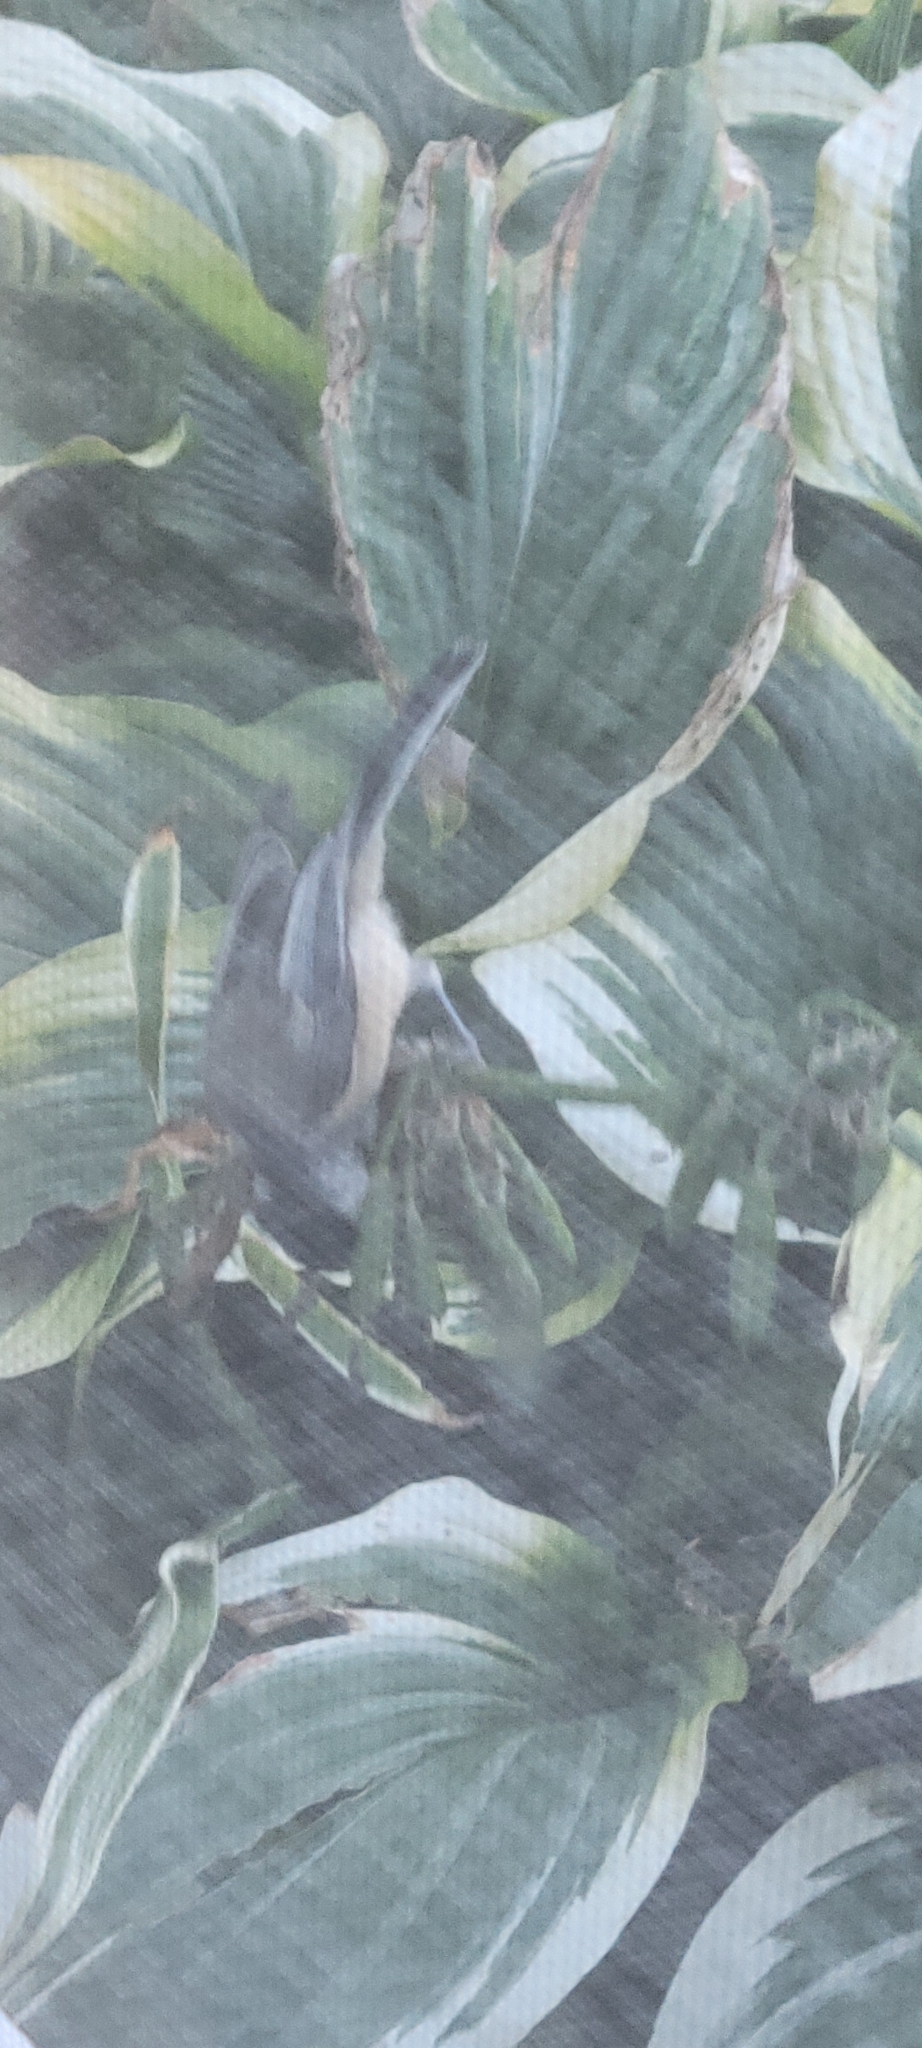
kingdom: Animalia
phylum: Chordata
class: Aves
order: Passeriformes
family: Paridae
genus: Poecile
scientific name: Poecile atricapillus
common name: Black-capped chickadee
